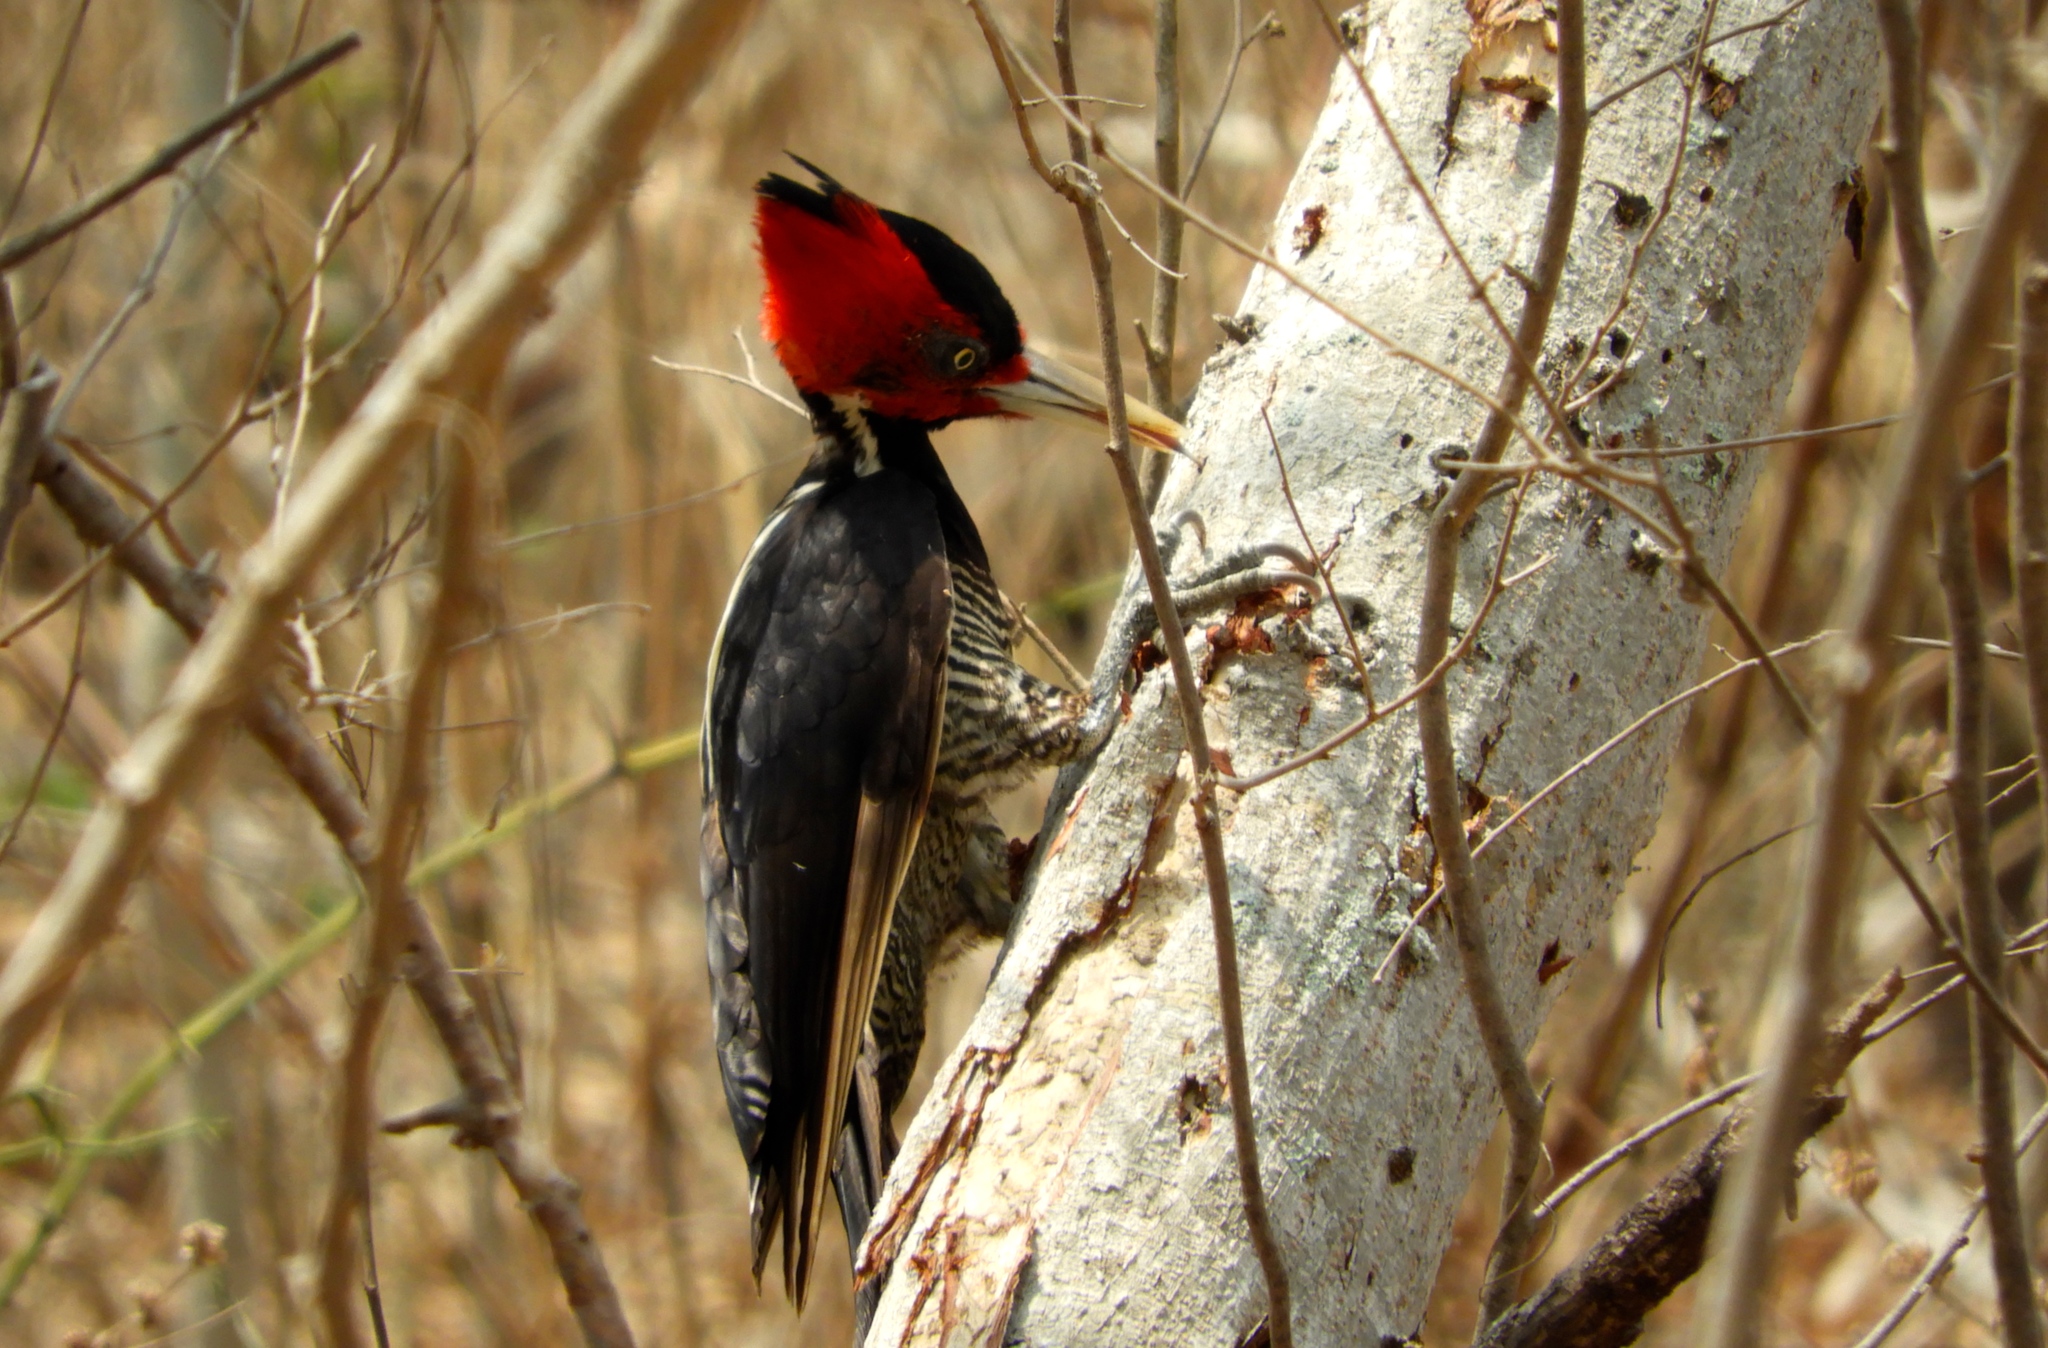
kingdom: Animalia
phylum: Chordata
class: Aves
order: Piciformes
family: Picidae
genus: Campephilus
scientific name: Campephilus guatemalensis
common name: Pale-billed woodpecker
